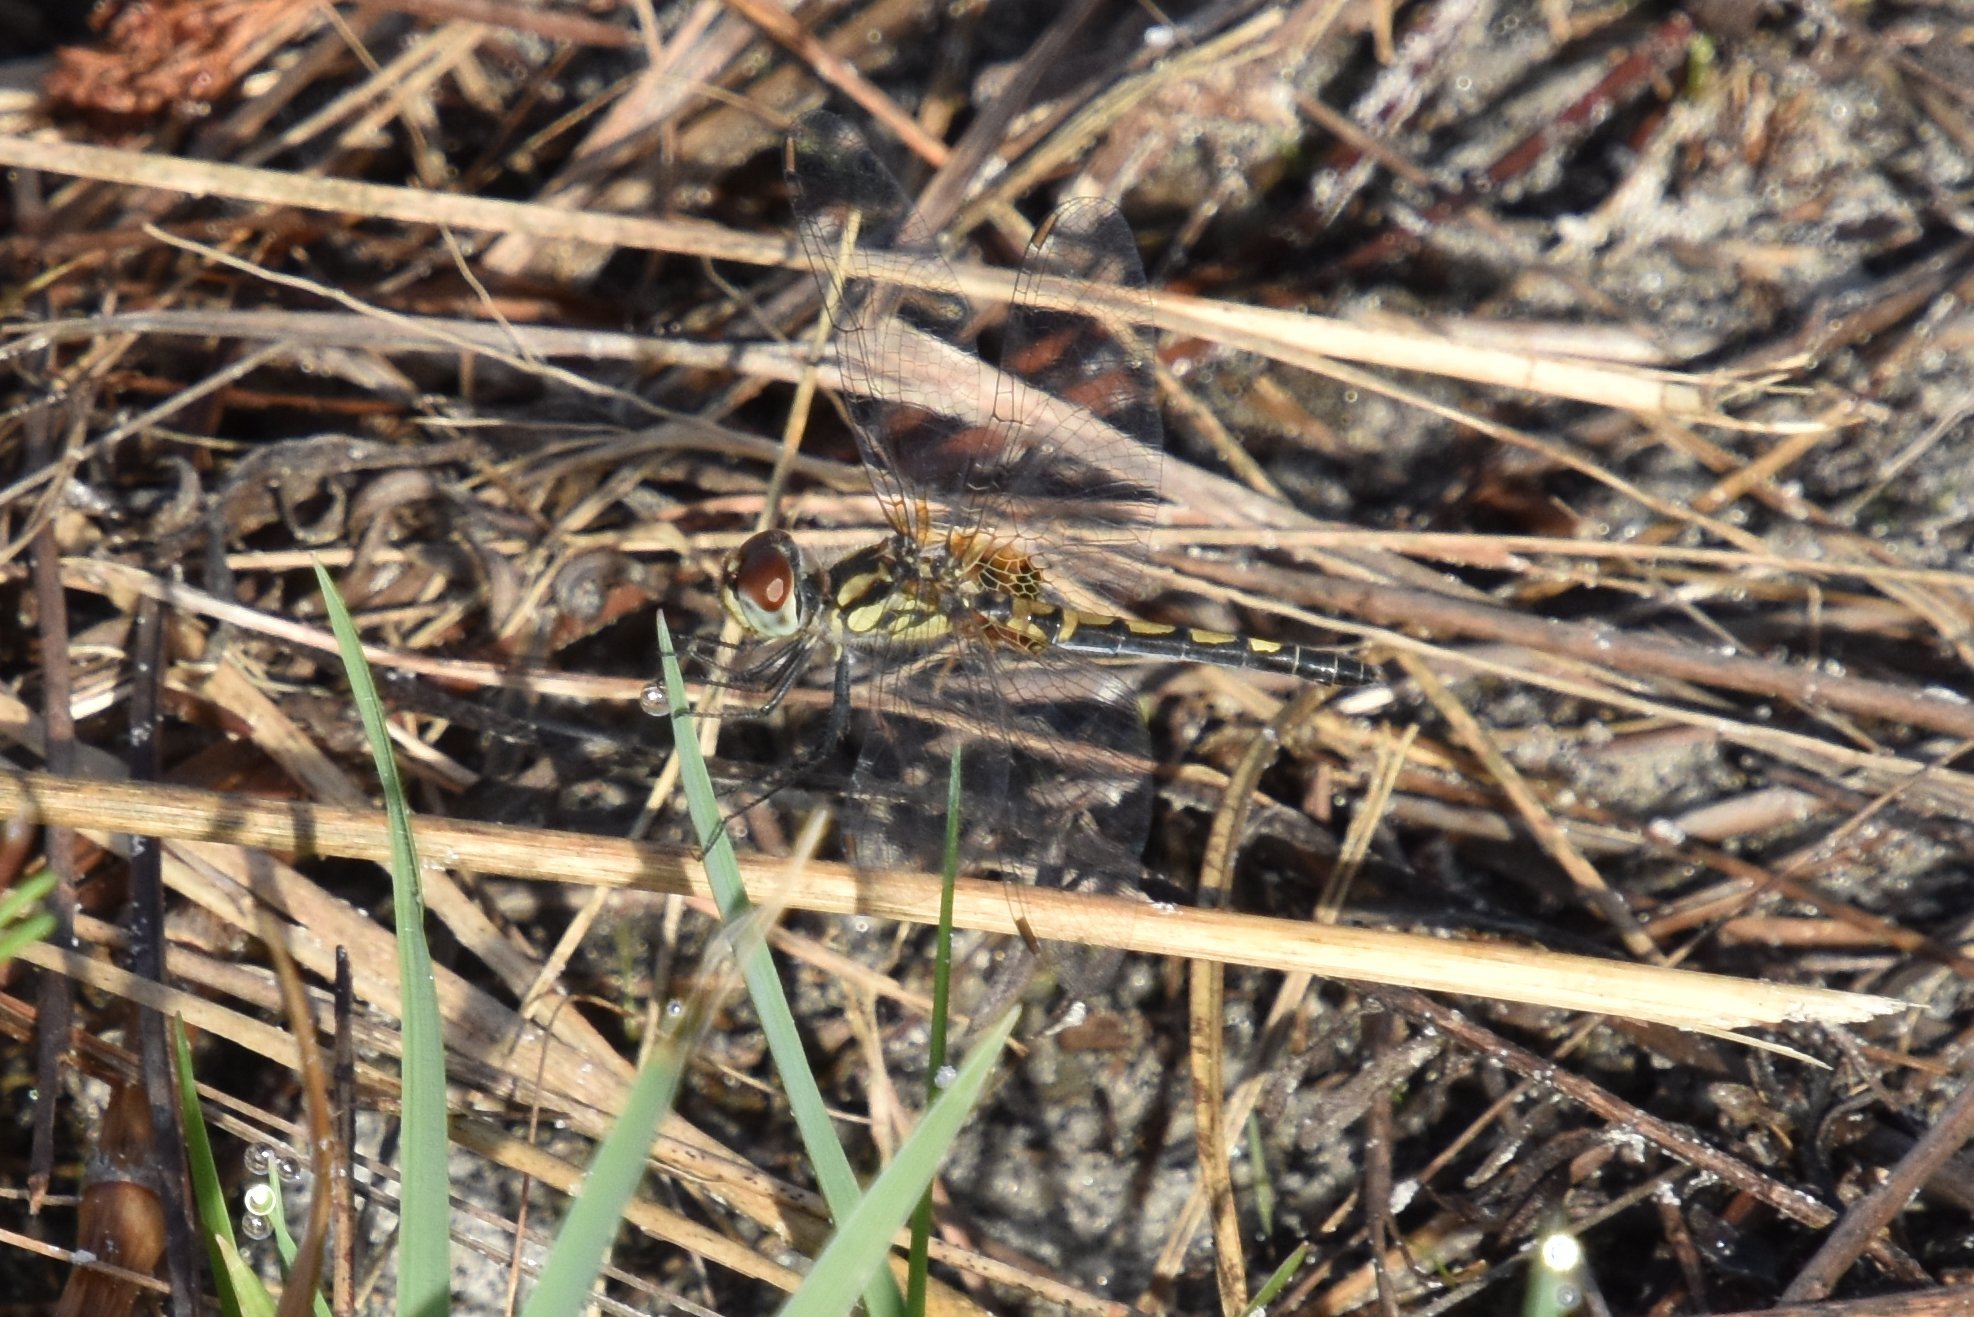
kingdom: Animalia
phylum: Arthropoda
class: Insecta
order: Odonata
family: Libellulidae
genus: Celithemis
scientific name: Celithemis ornata
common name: Ornate pennant
